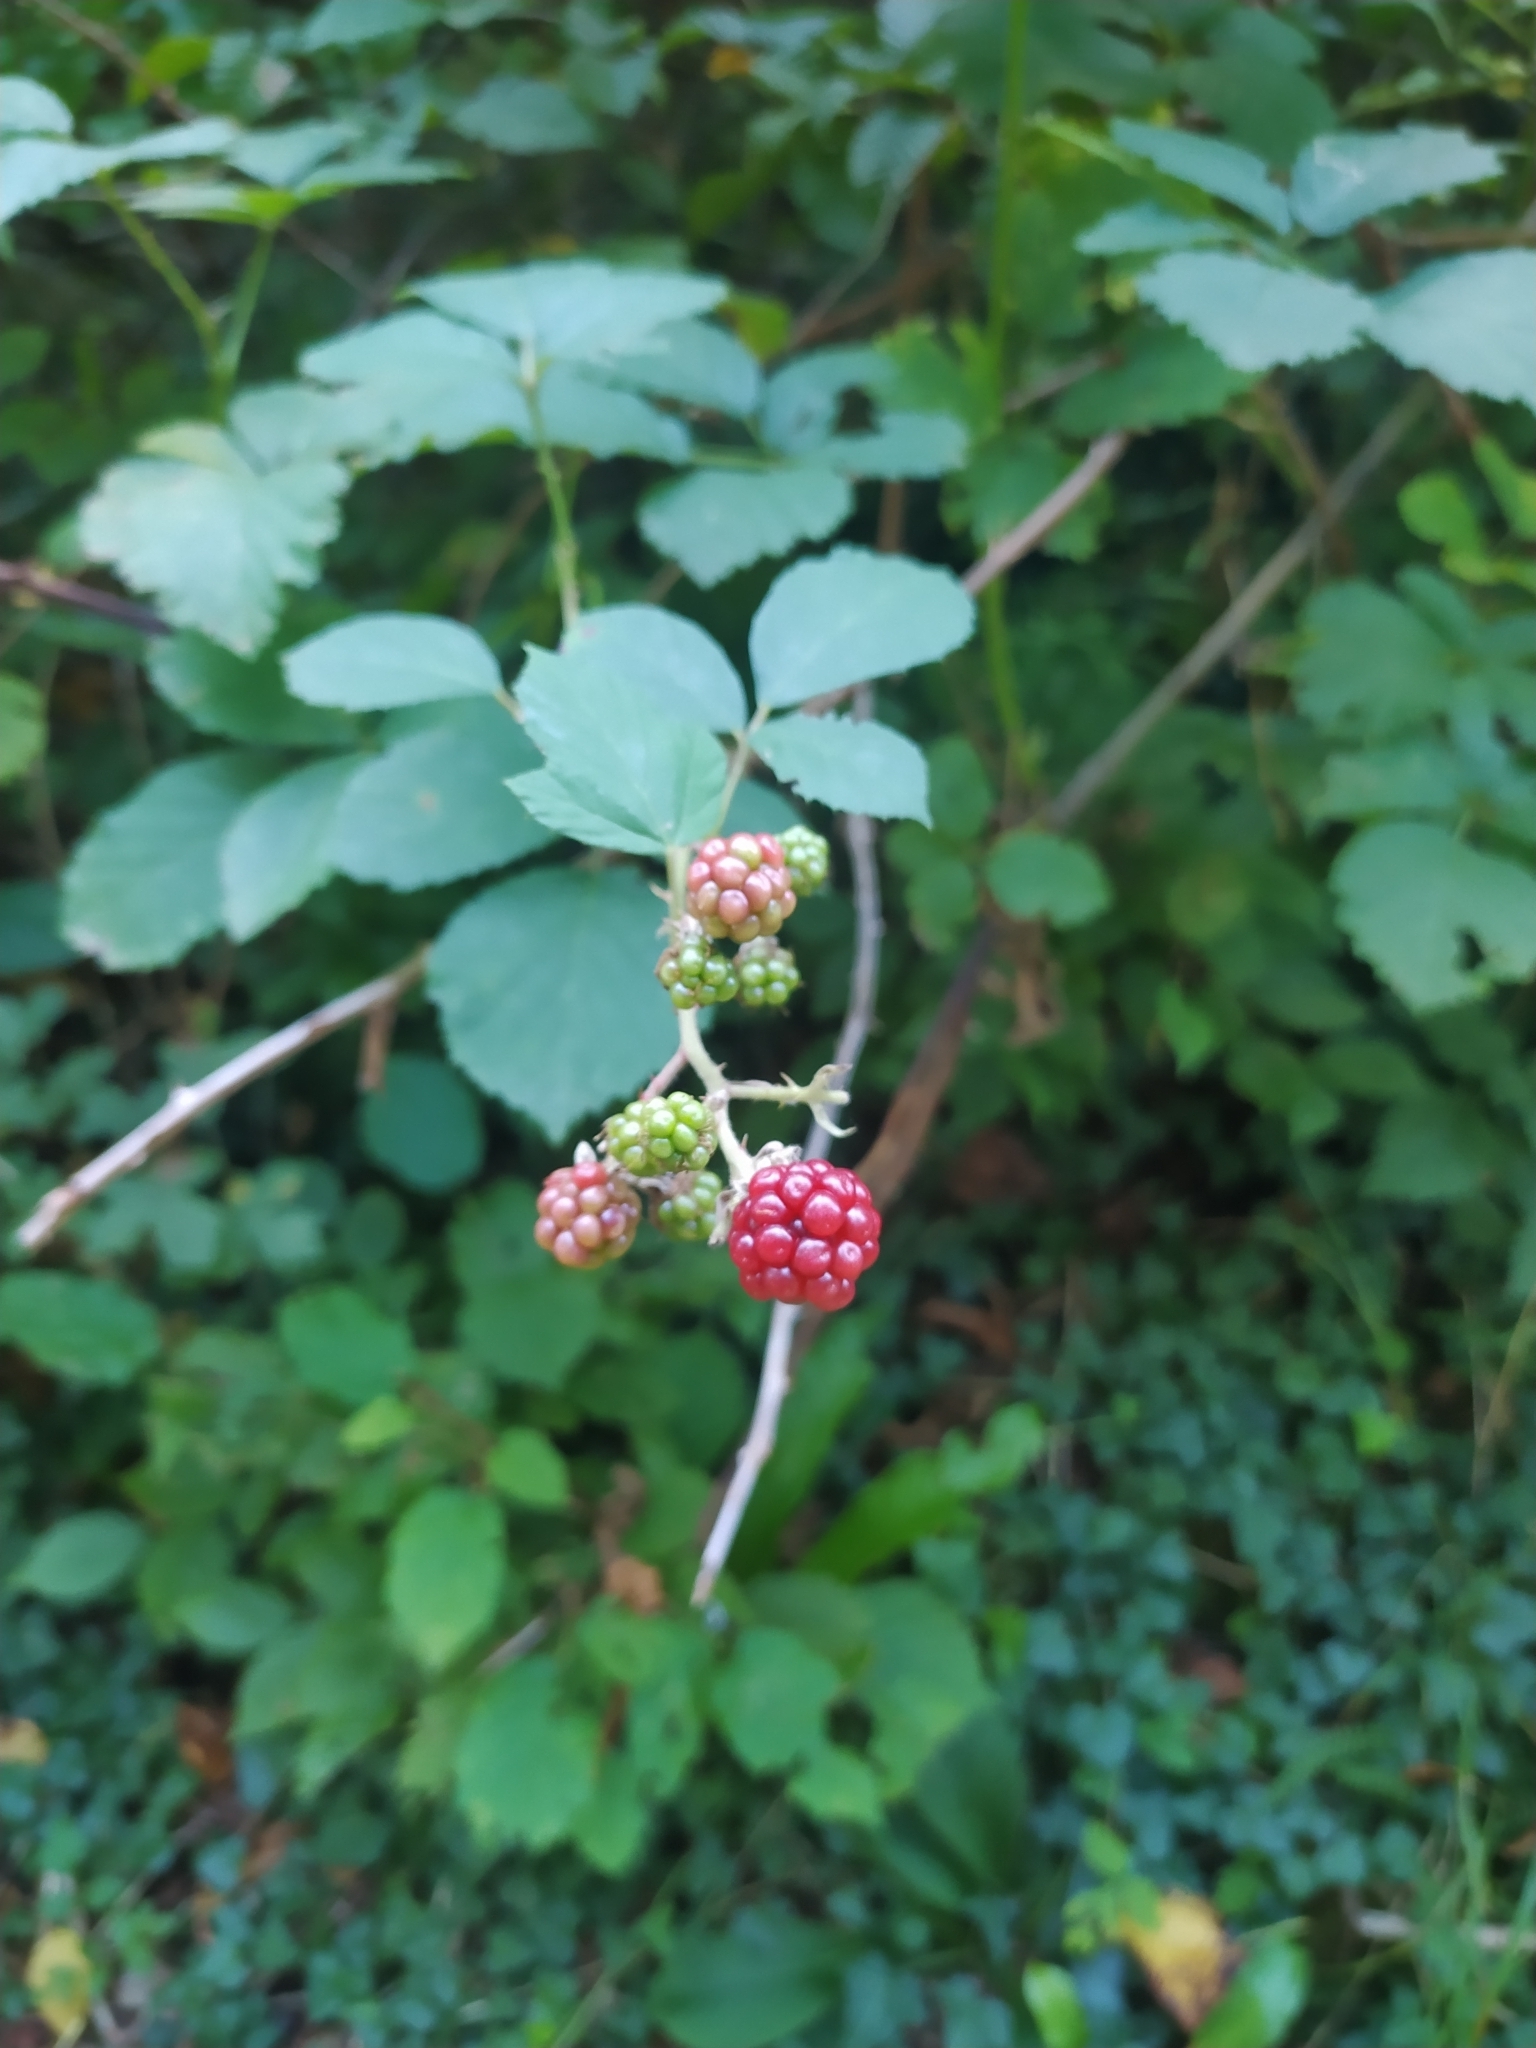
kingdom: Plantae
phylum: Tracheophyta
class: Magnoliopsida
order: Rosales
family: Rosaceae
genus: Rubus
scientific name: Rubus ulmifolius
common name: Elmleaf blackberry
